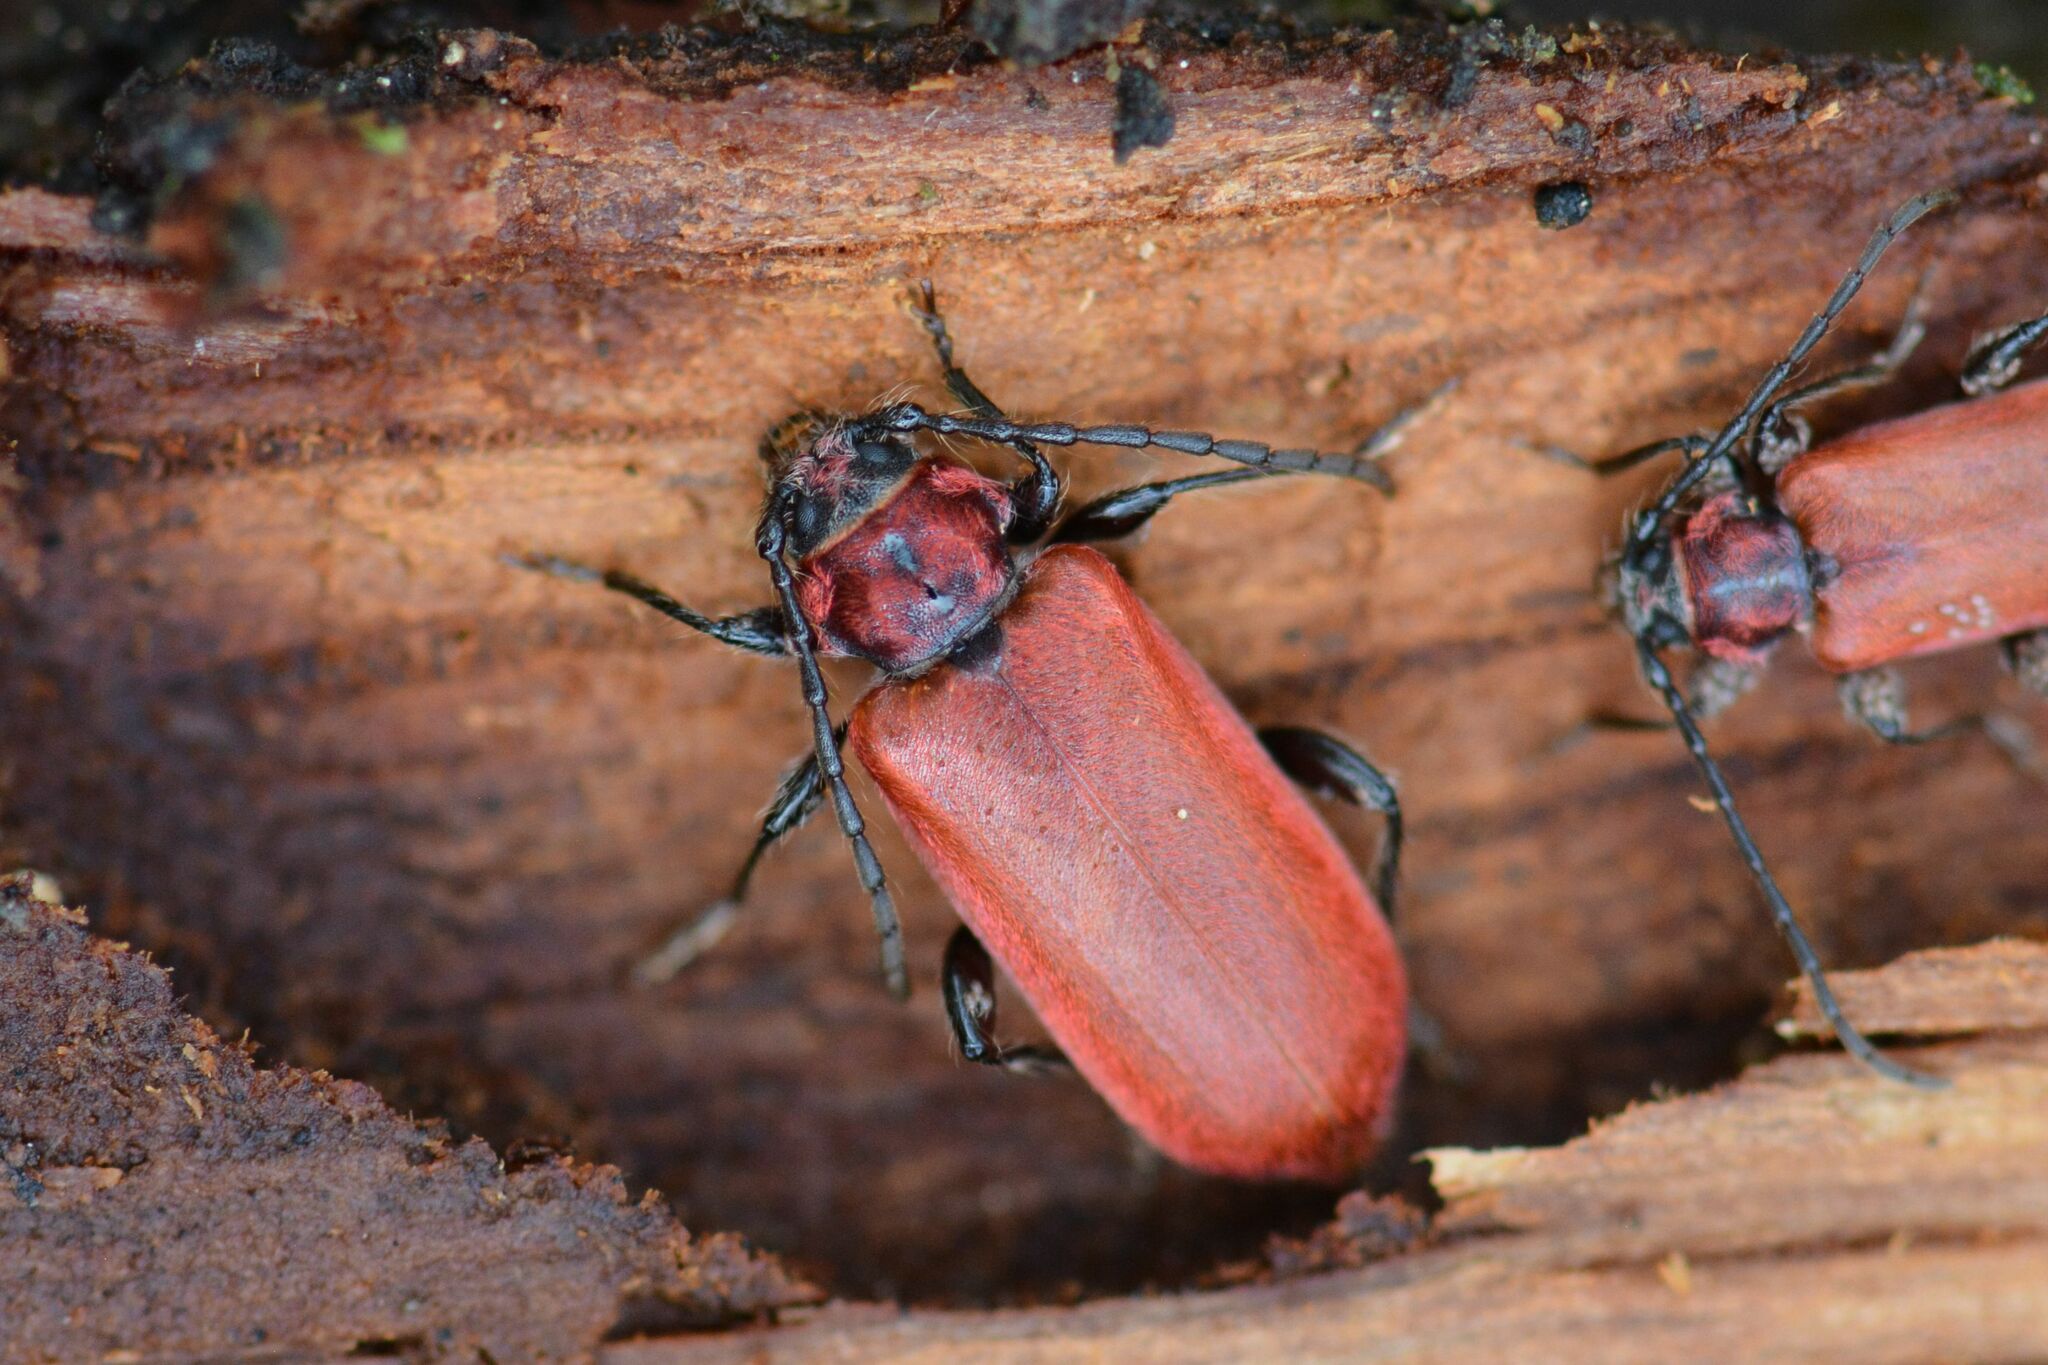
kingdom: Animalia
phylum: Arthropoda
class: Insecta
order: Coleoptera
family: Cerambycidae
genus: Pyrrhidium
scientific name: Pyrrhidium sanguineum
